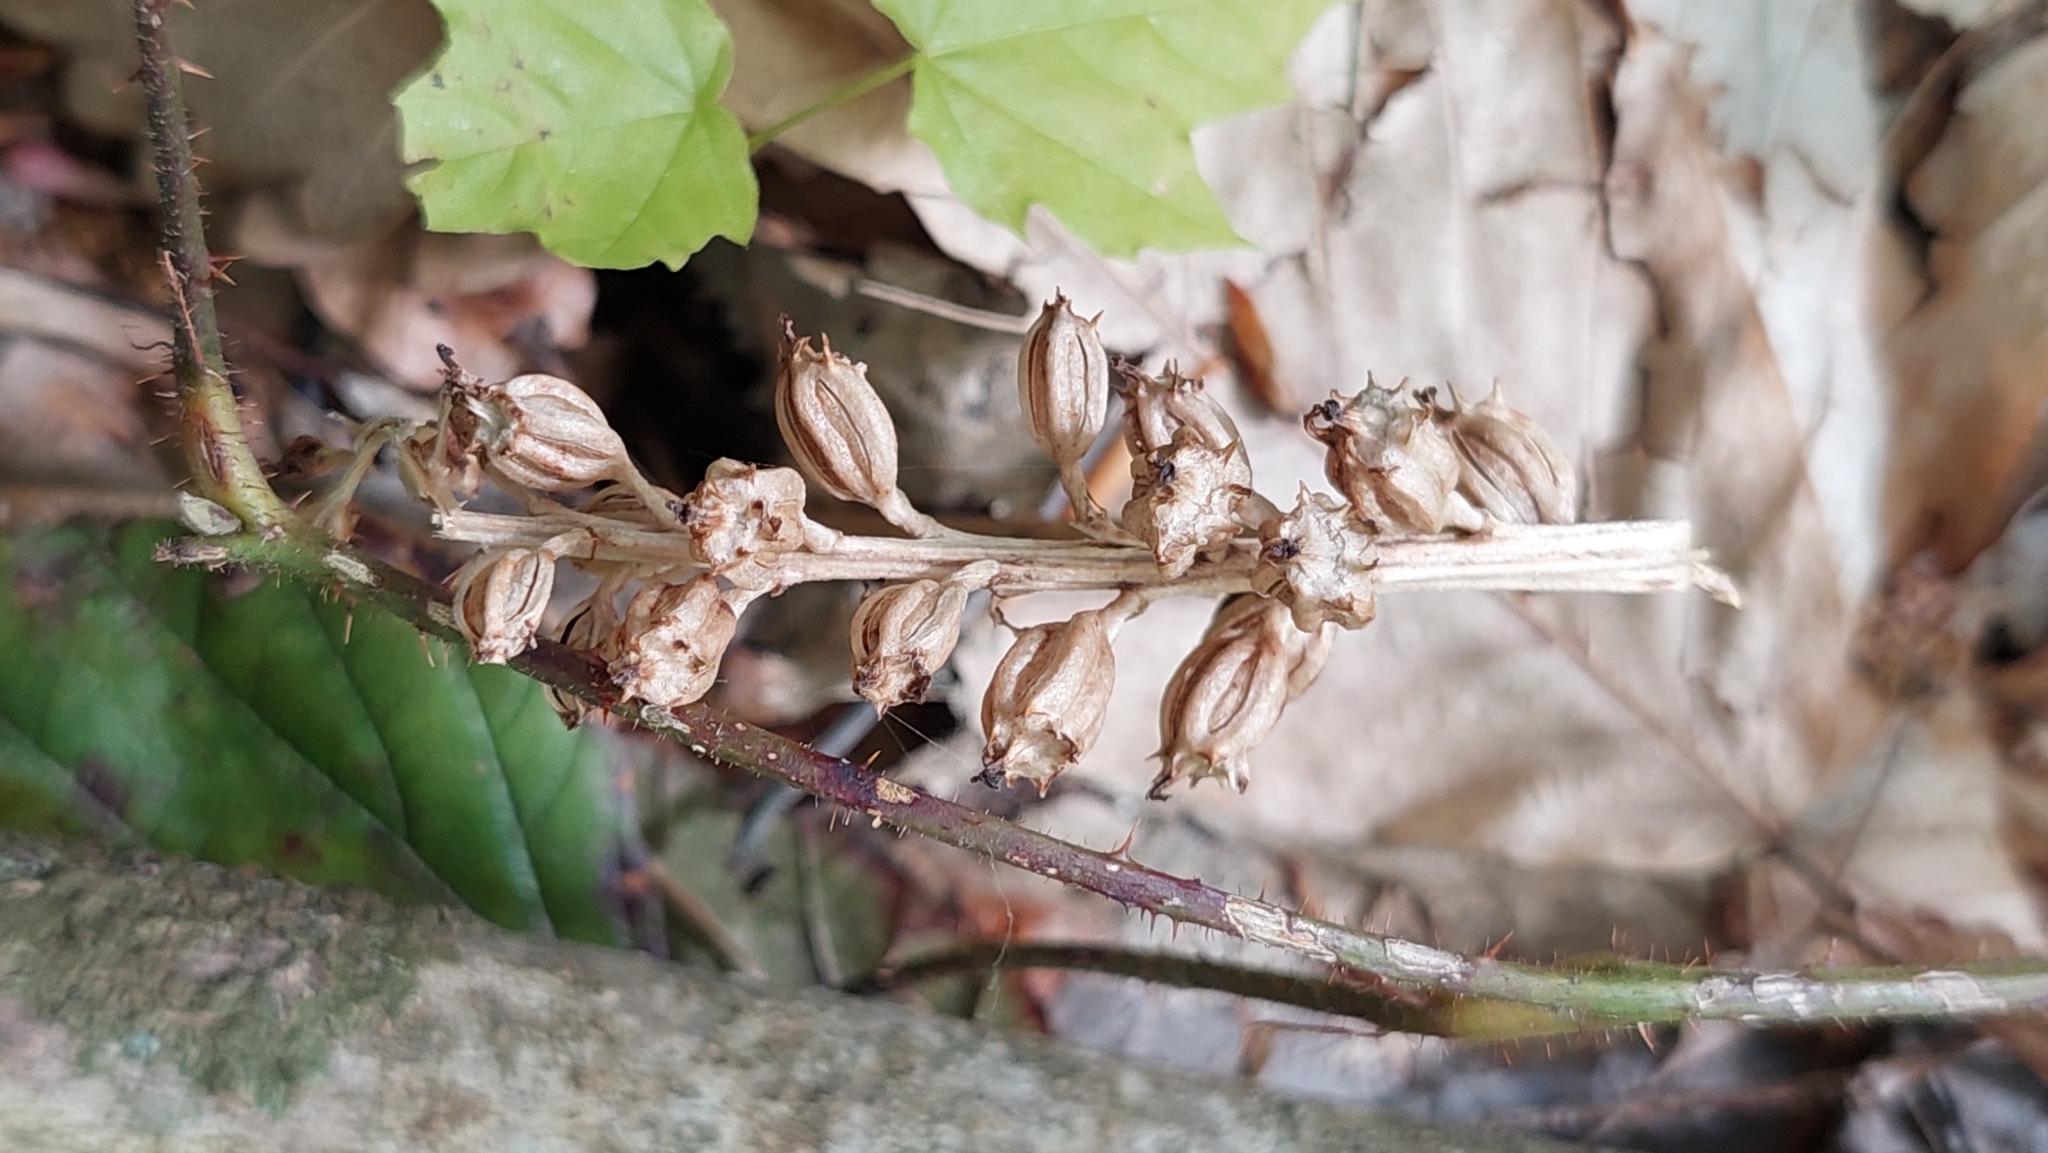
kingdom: Plantae
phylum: Tracheophyta
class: Liliopsida
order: Asparagales
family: Orchidaceae
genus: Neottia
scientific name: Neottia nidus-avis
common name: Bird's-nest orchid
